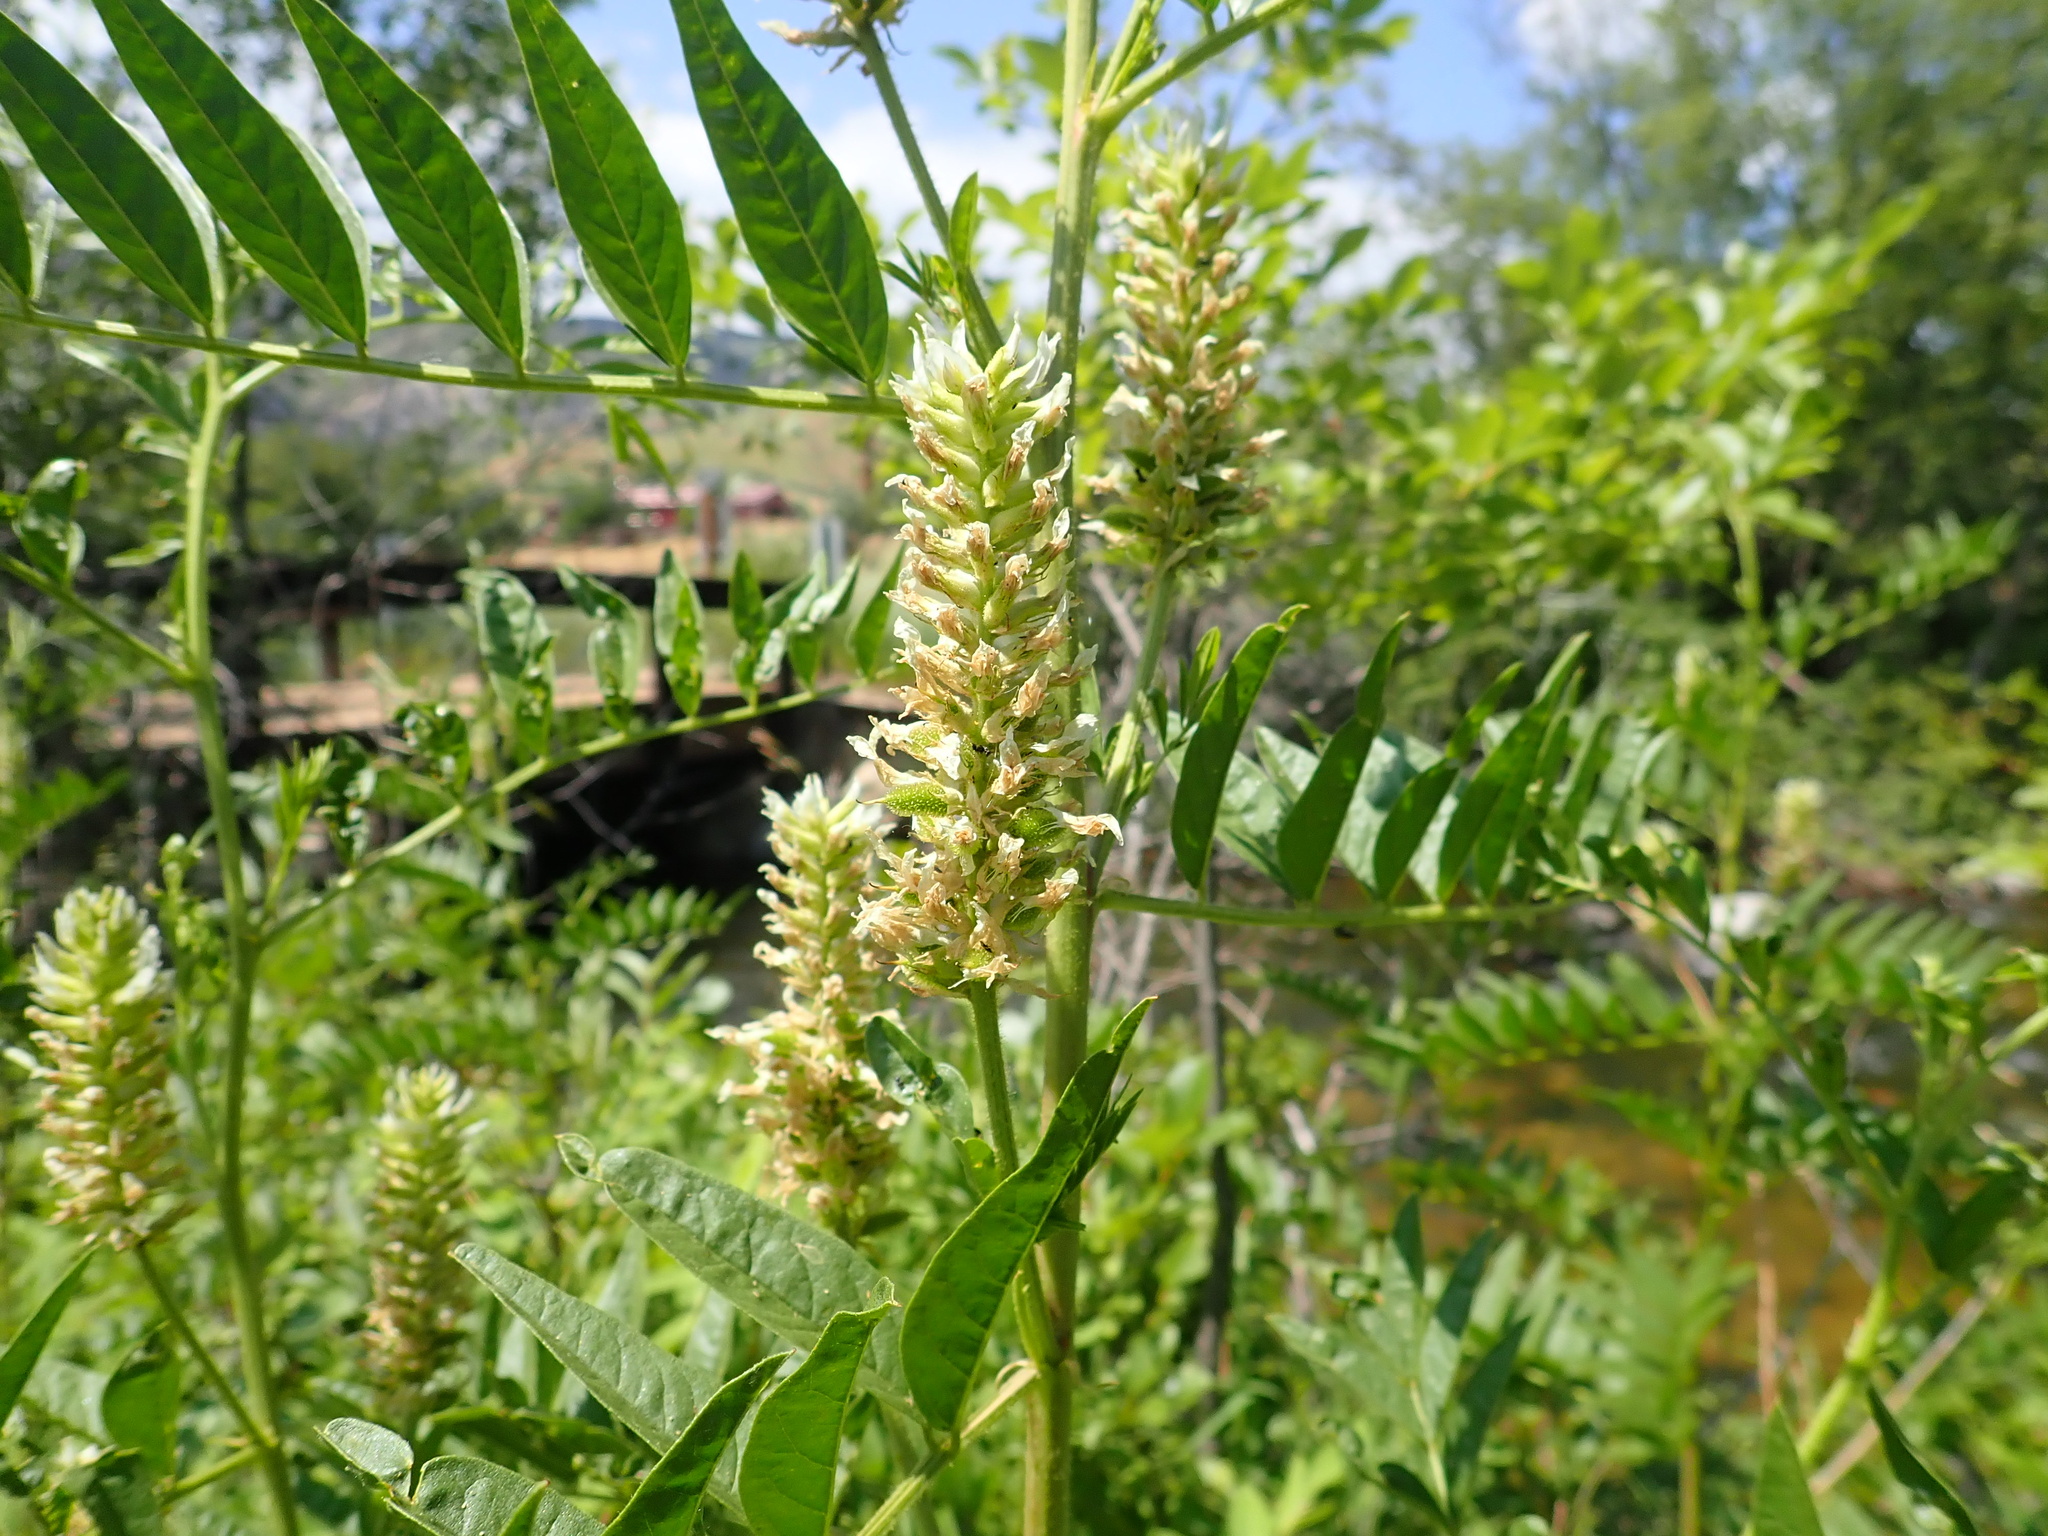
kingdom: Plantae
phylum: Tracheophyta
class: Magnoliopsida
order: Fabales
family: Fabaceae
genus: Glycyrrhiza
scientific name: Glycyrrhiza lepidota
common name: American liquorice
